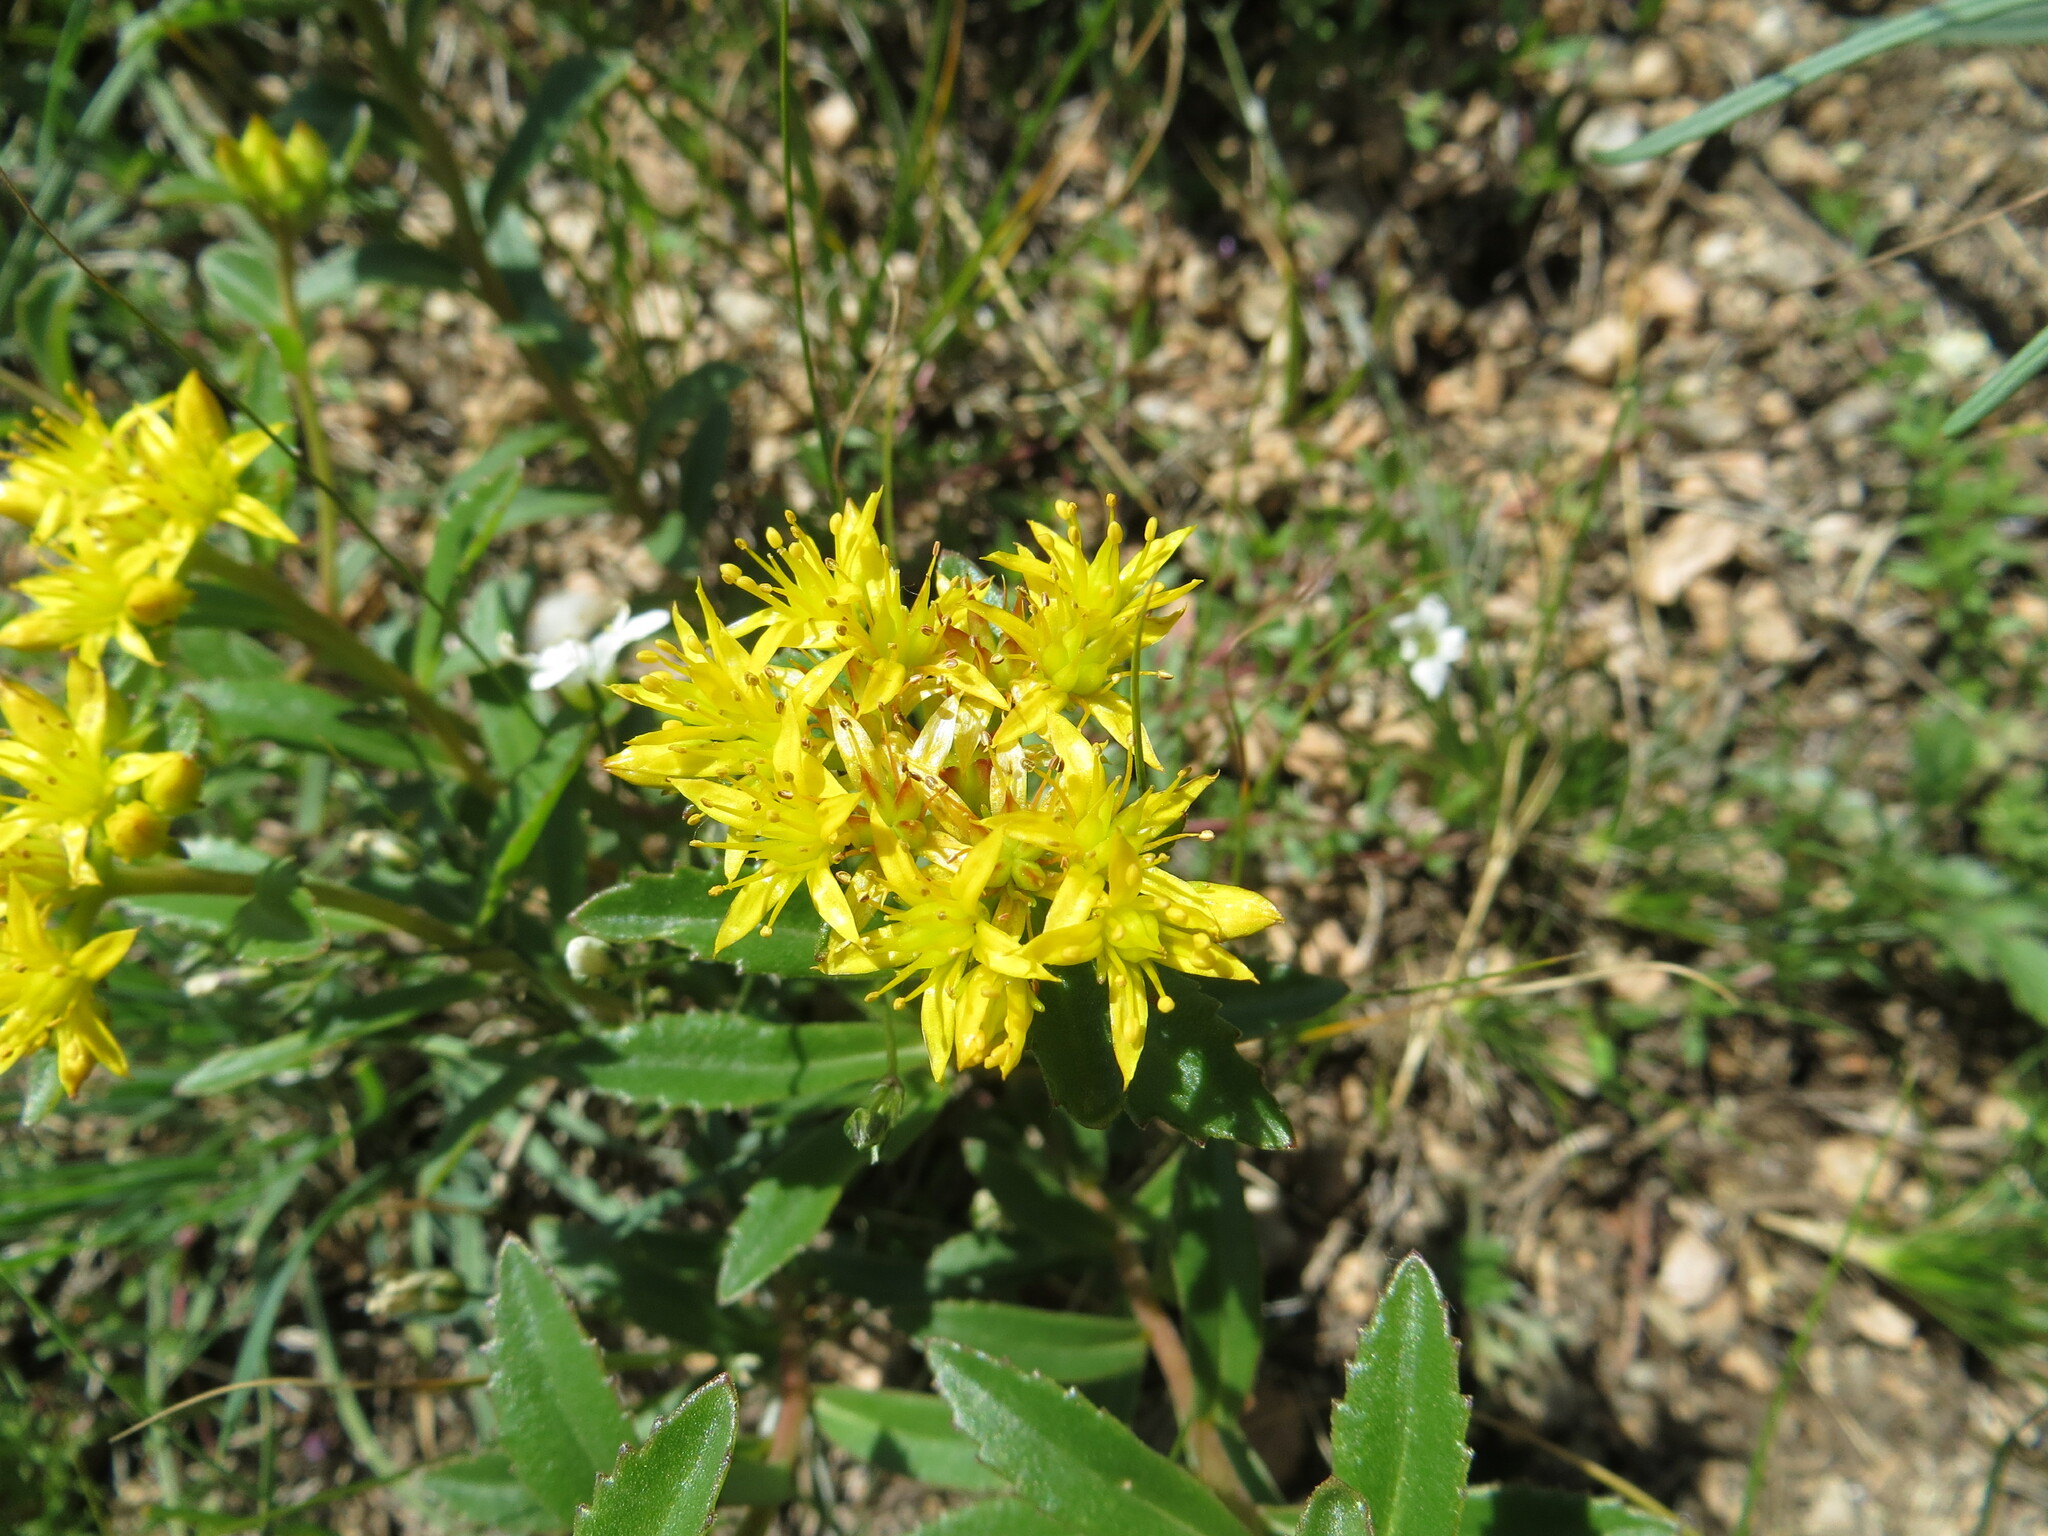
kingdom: Plantae
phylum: Tracheophyta
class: Magnoliopsida
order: Saxifragales
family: Crassulaceae
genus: Phedimus
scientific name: Phedimus aizoon
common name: Orpin aizoon
